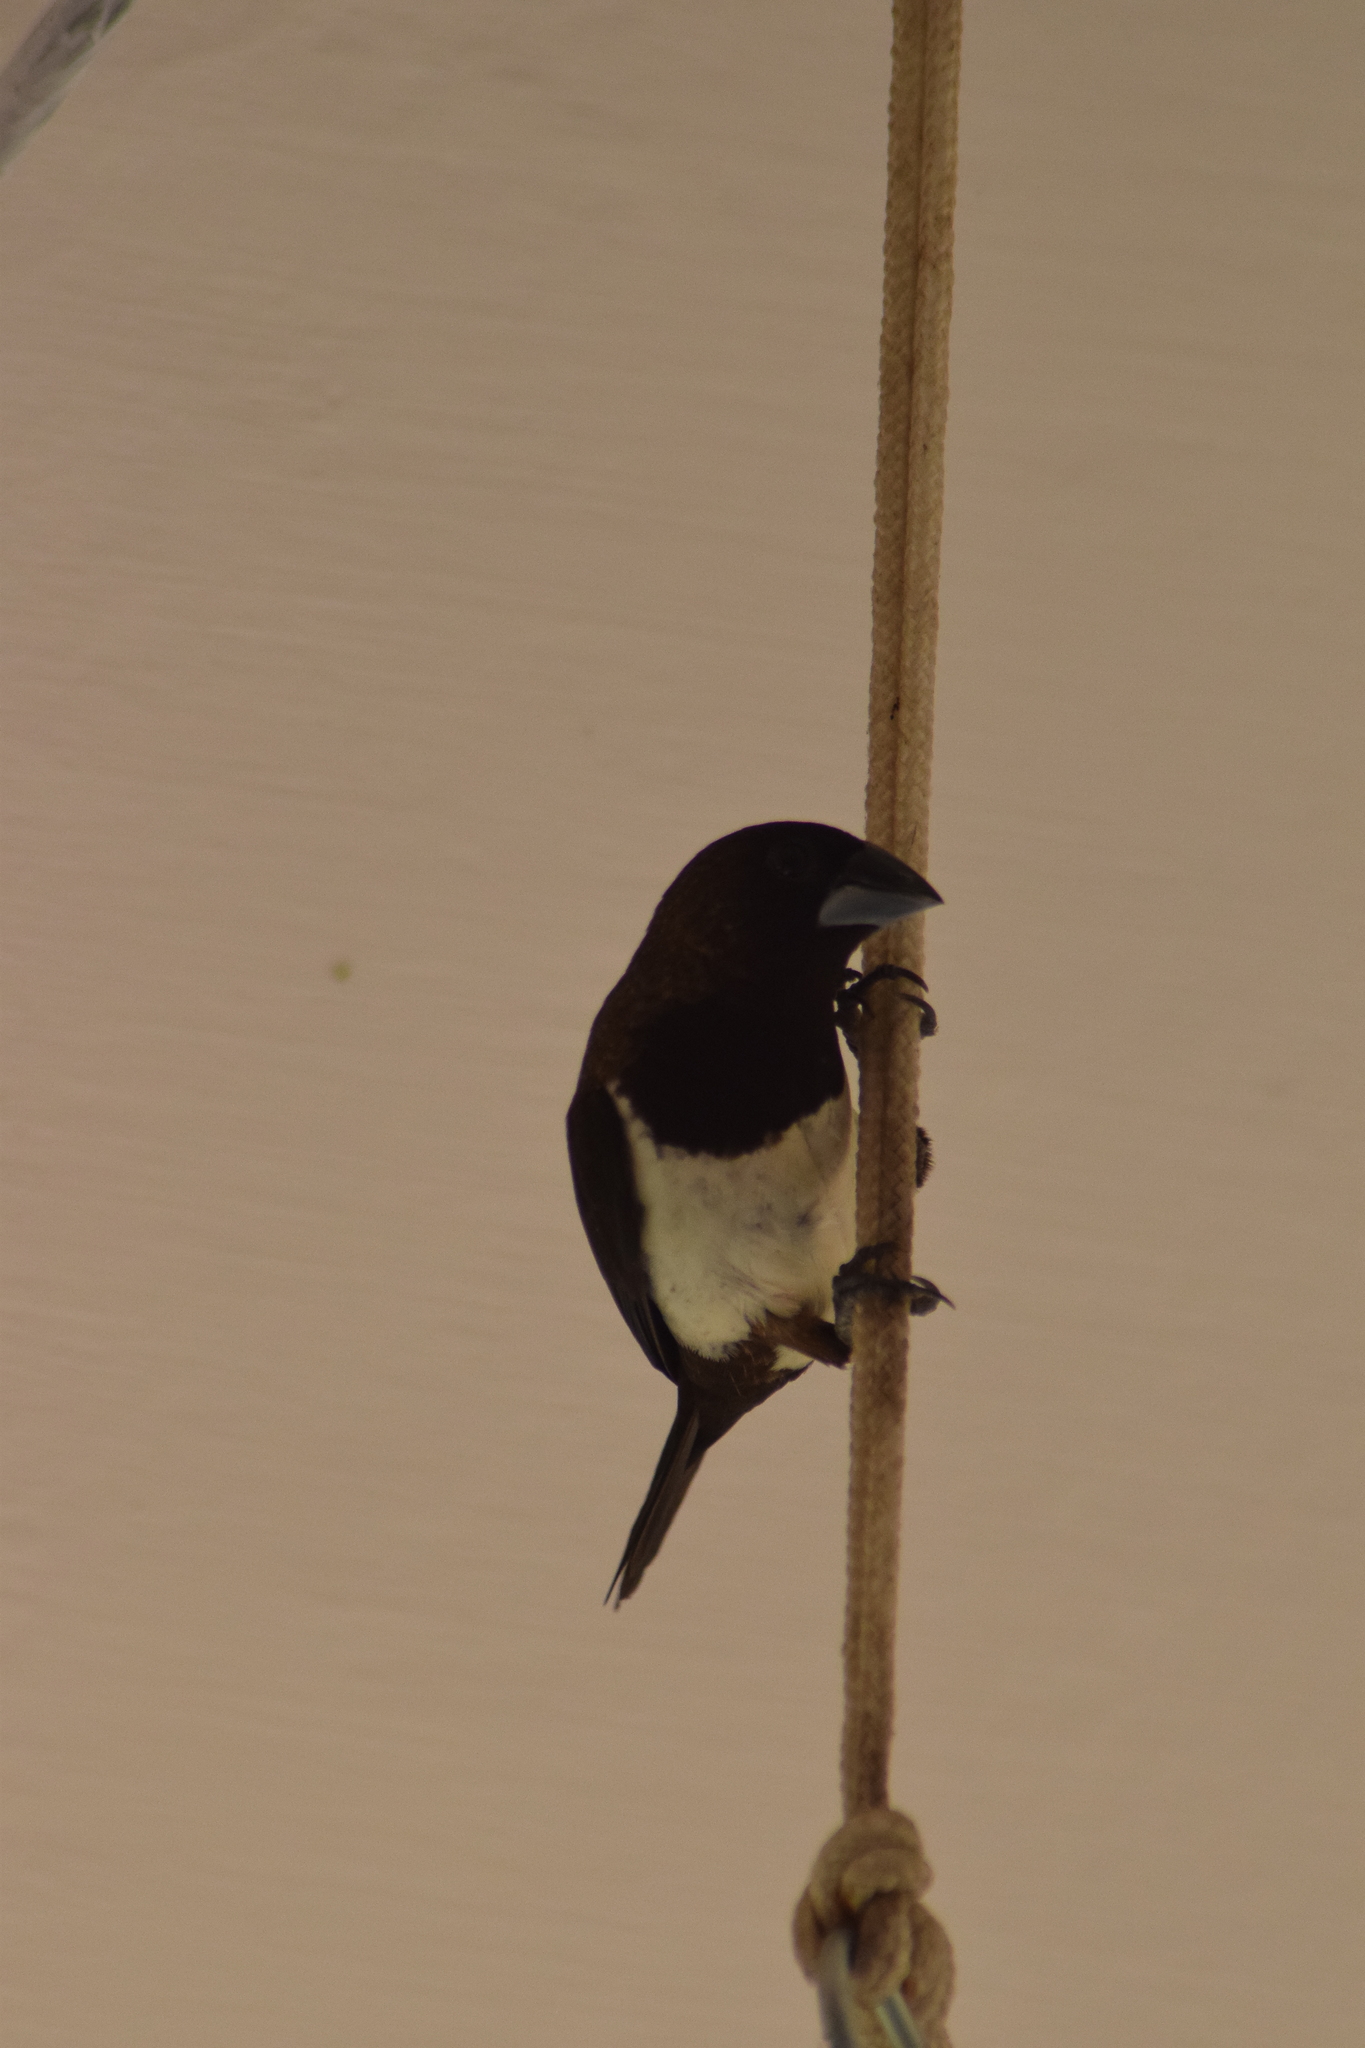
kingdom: Animalia
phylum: Chordata
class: Aves
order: Passeriformes
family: Estrildidae
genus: Lonchura
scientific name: Lonchura striata
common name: White-rumped munia
